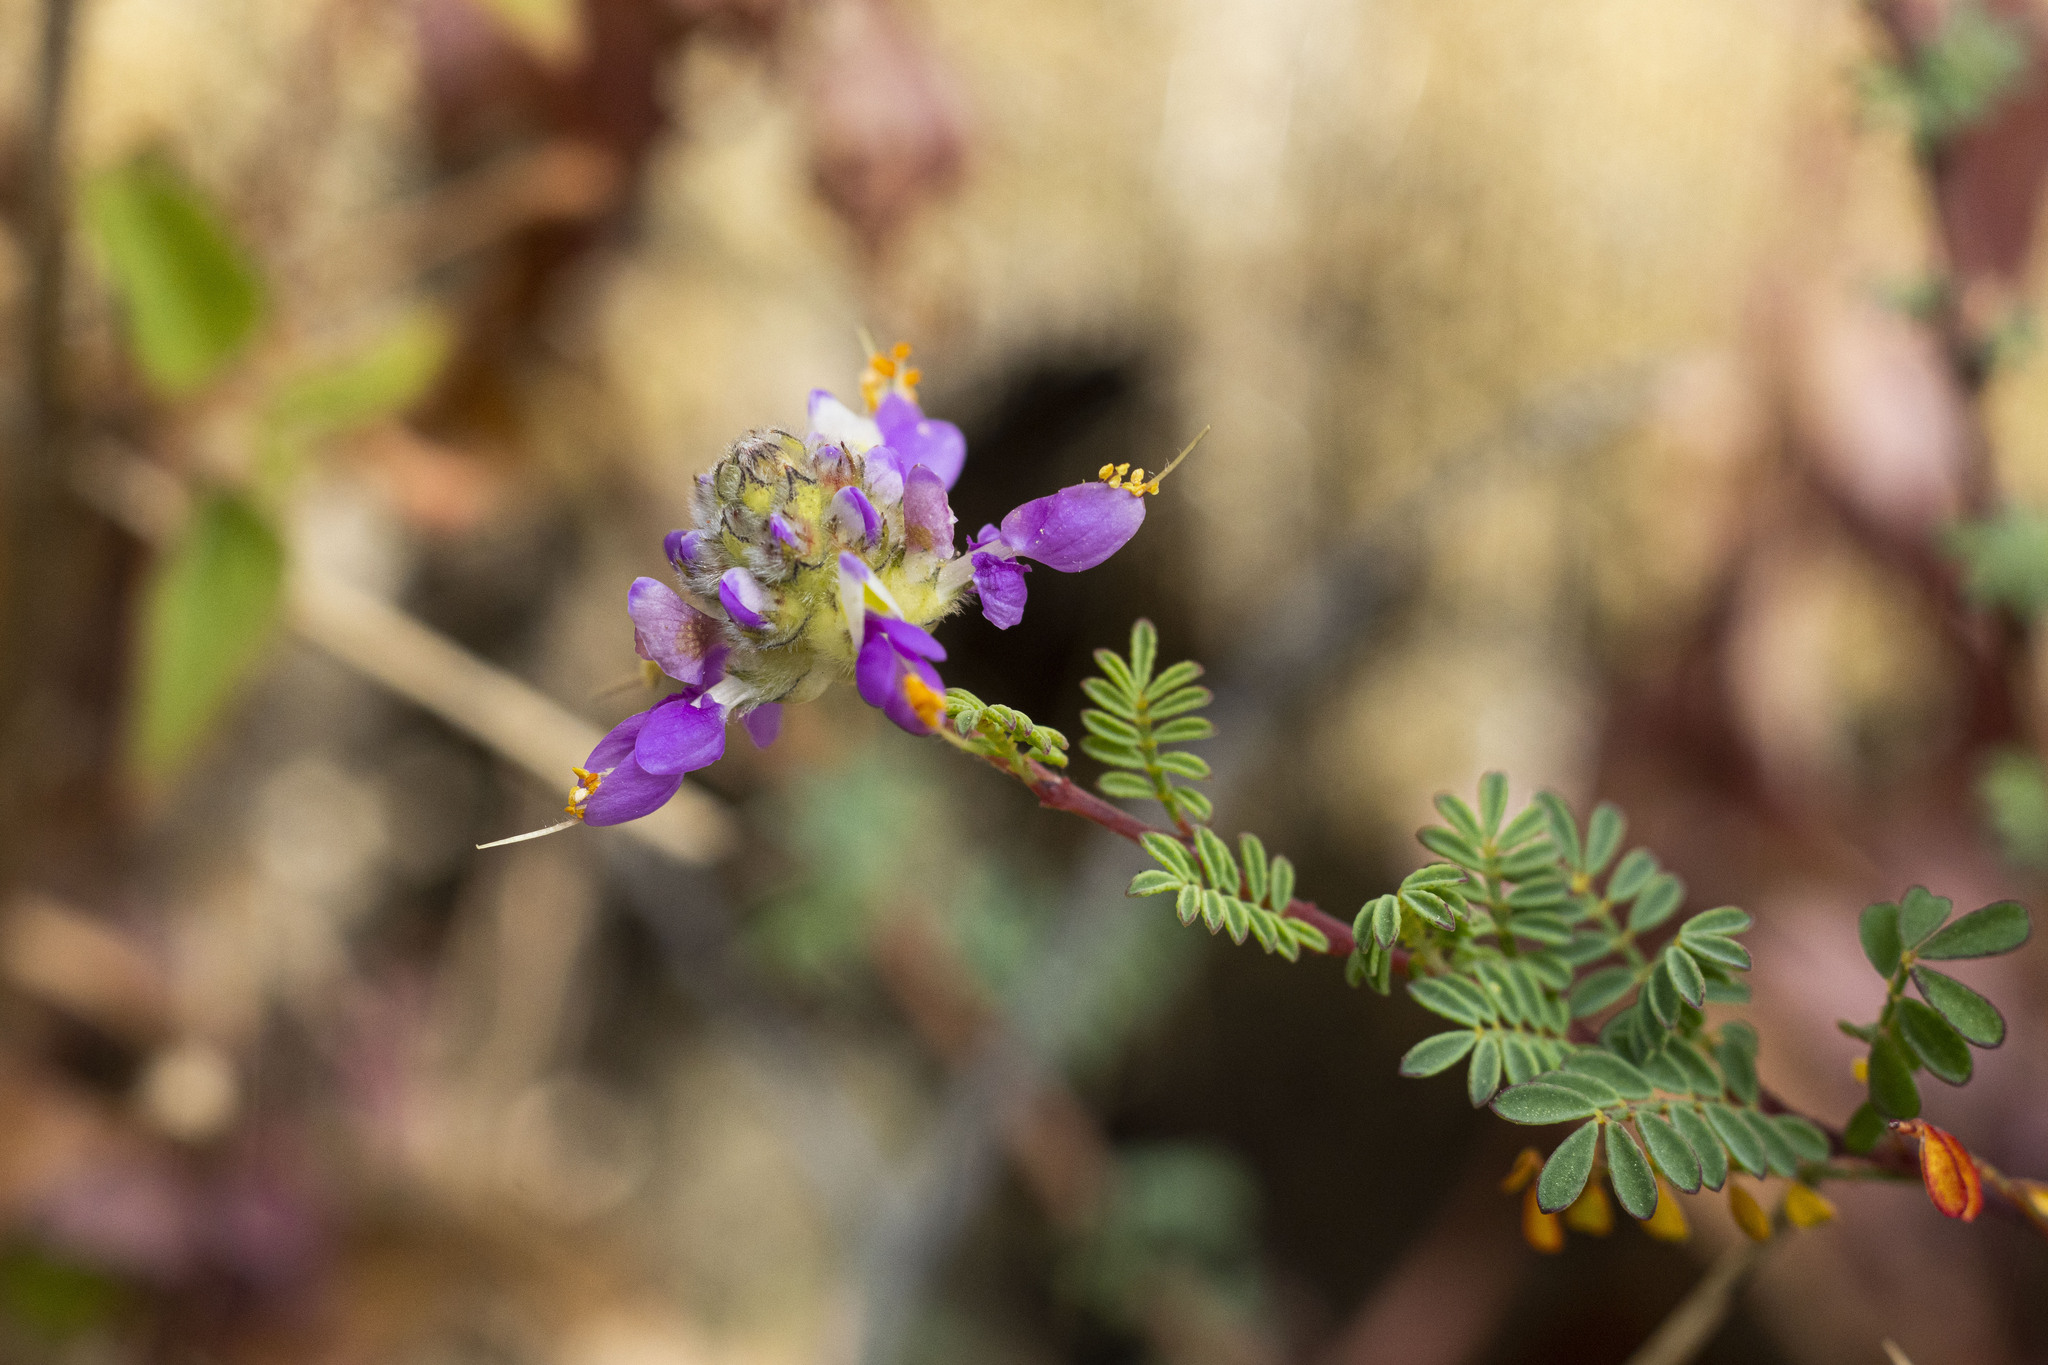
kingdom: Plantae
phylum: Tracheophyta
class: Magnoliopsida
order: Fabales
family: Fabaceae
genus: Dalea
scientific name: Dalea trochilina
